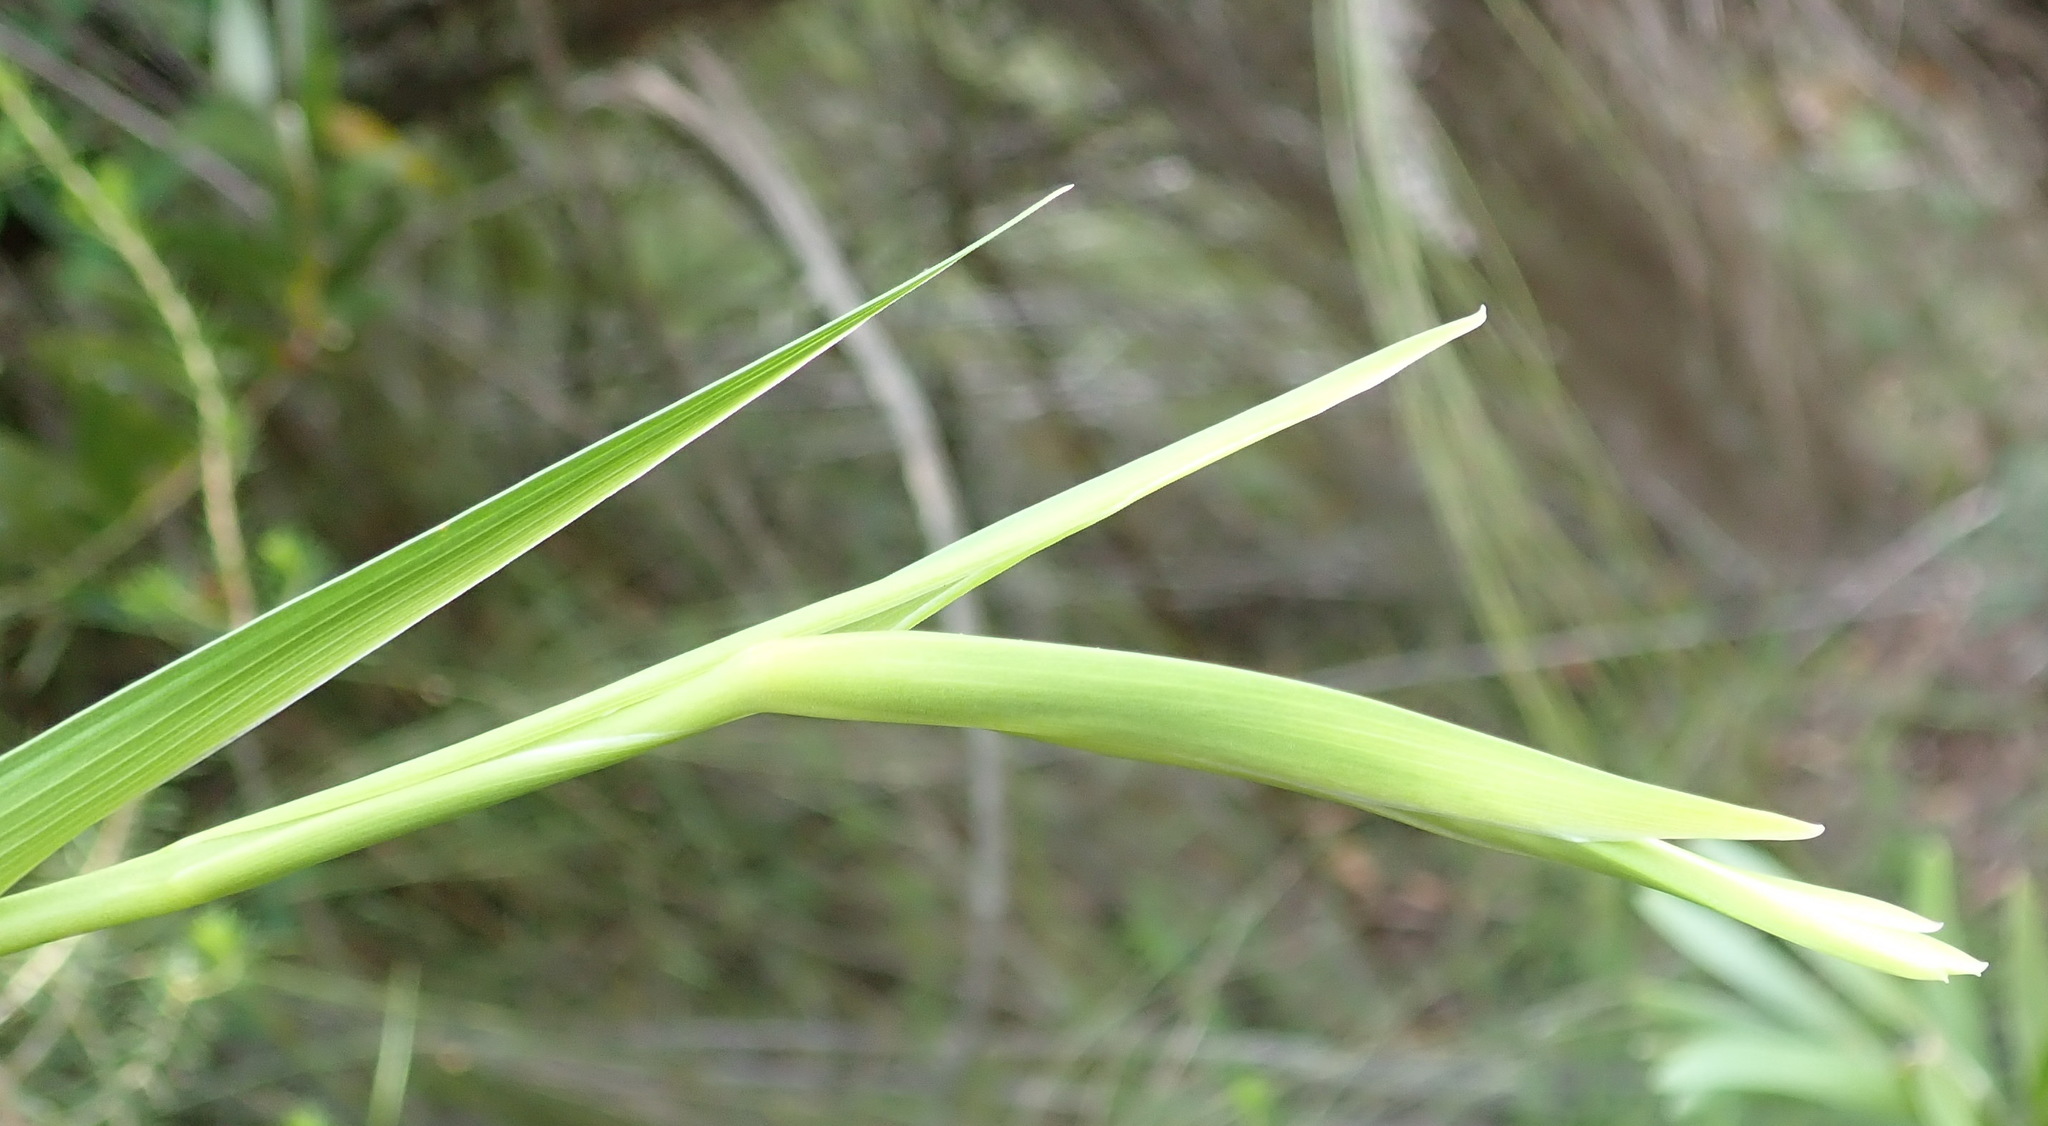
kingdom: Plantae
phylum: Tracheophyta
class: Liliopsida
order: Asparagales
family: Iridaceae
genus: Gladiolus
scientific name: Gladiolus sempervirens
